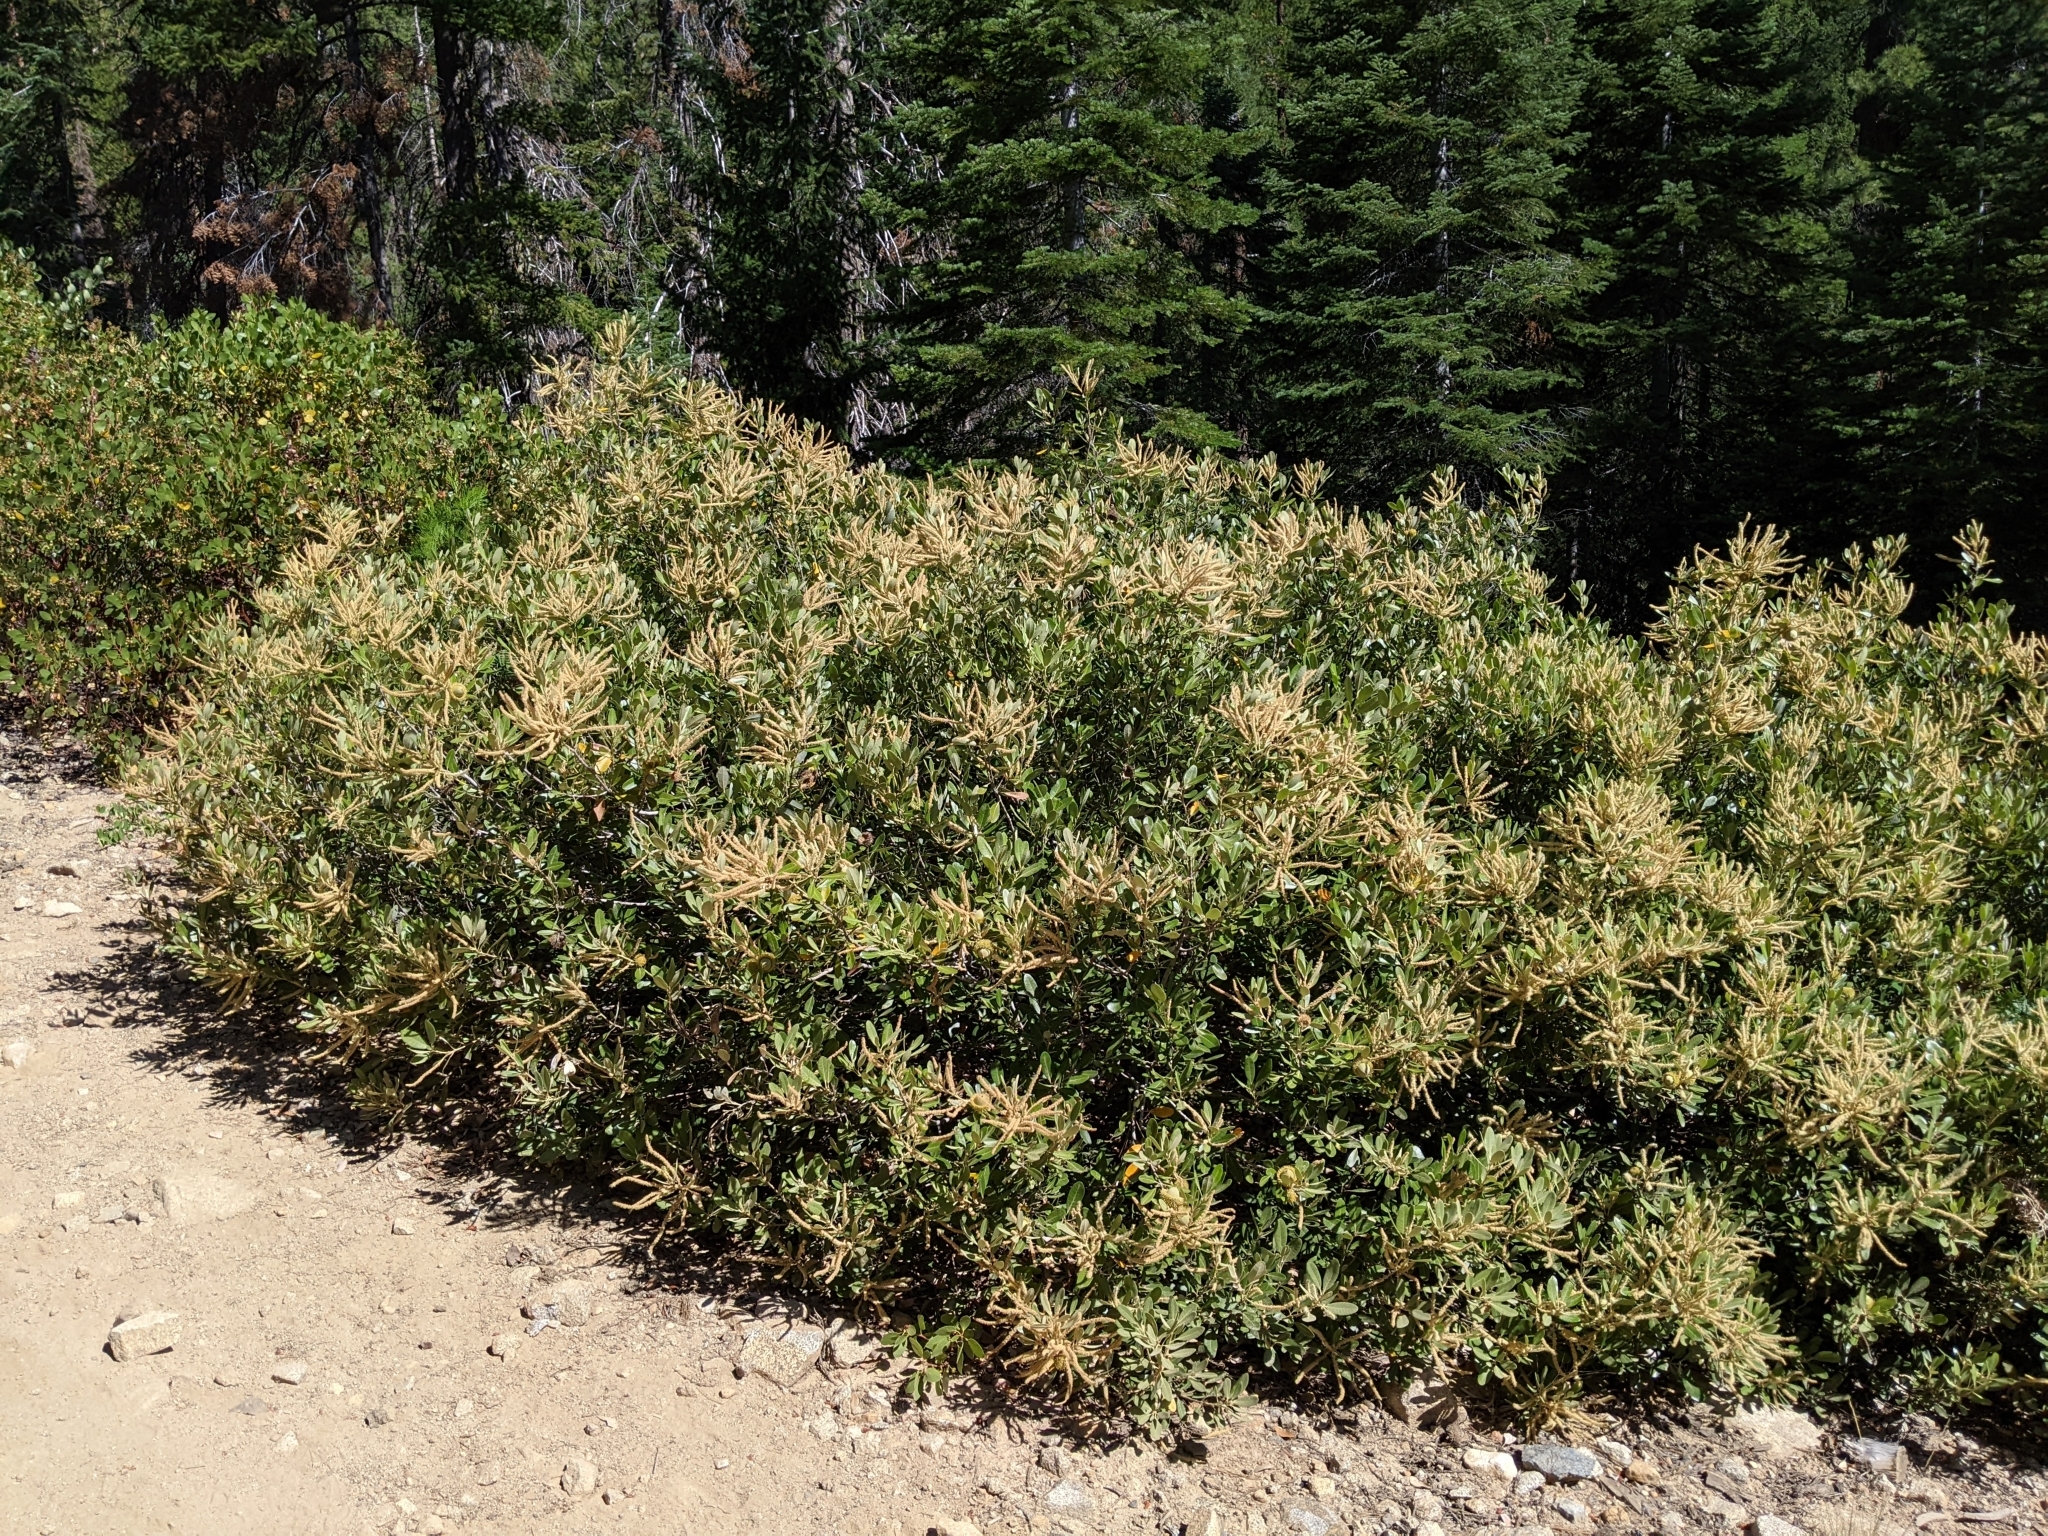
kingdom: Plantae
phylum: Tracheophyta
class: Magnoliopsida
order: Fagales
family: Fagaceae
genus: Notholithocarpus
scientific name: Notholithocarpus densiflorus
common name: Tan bark oak
